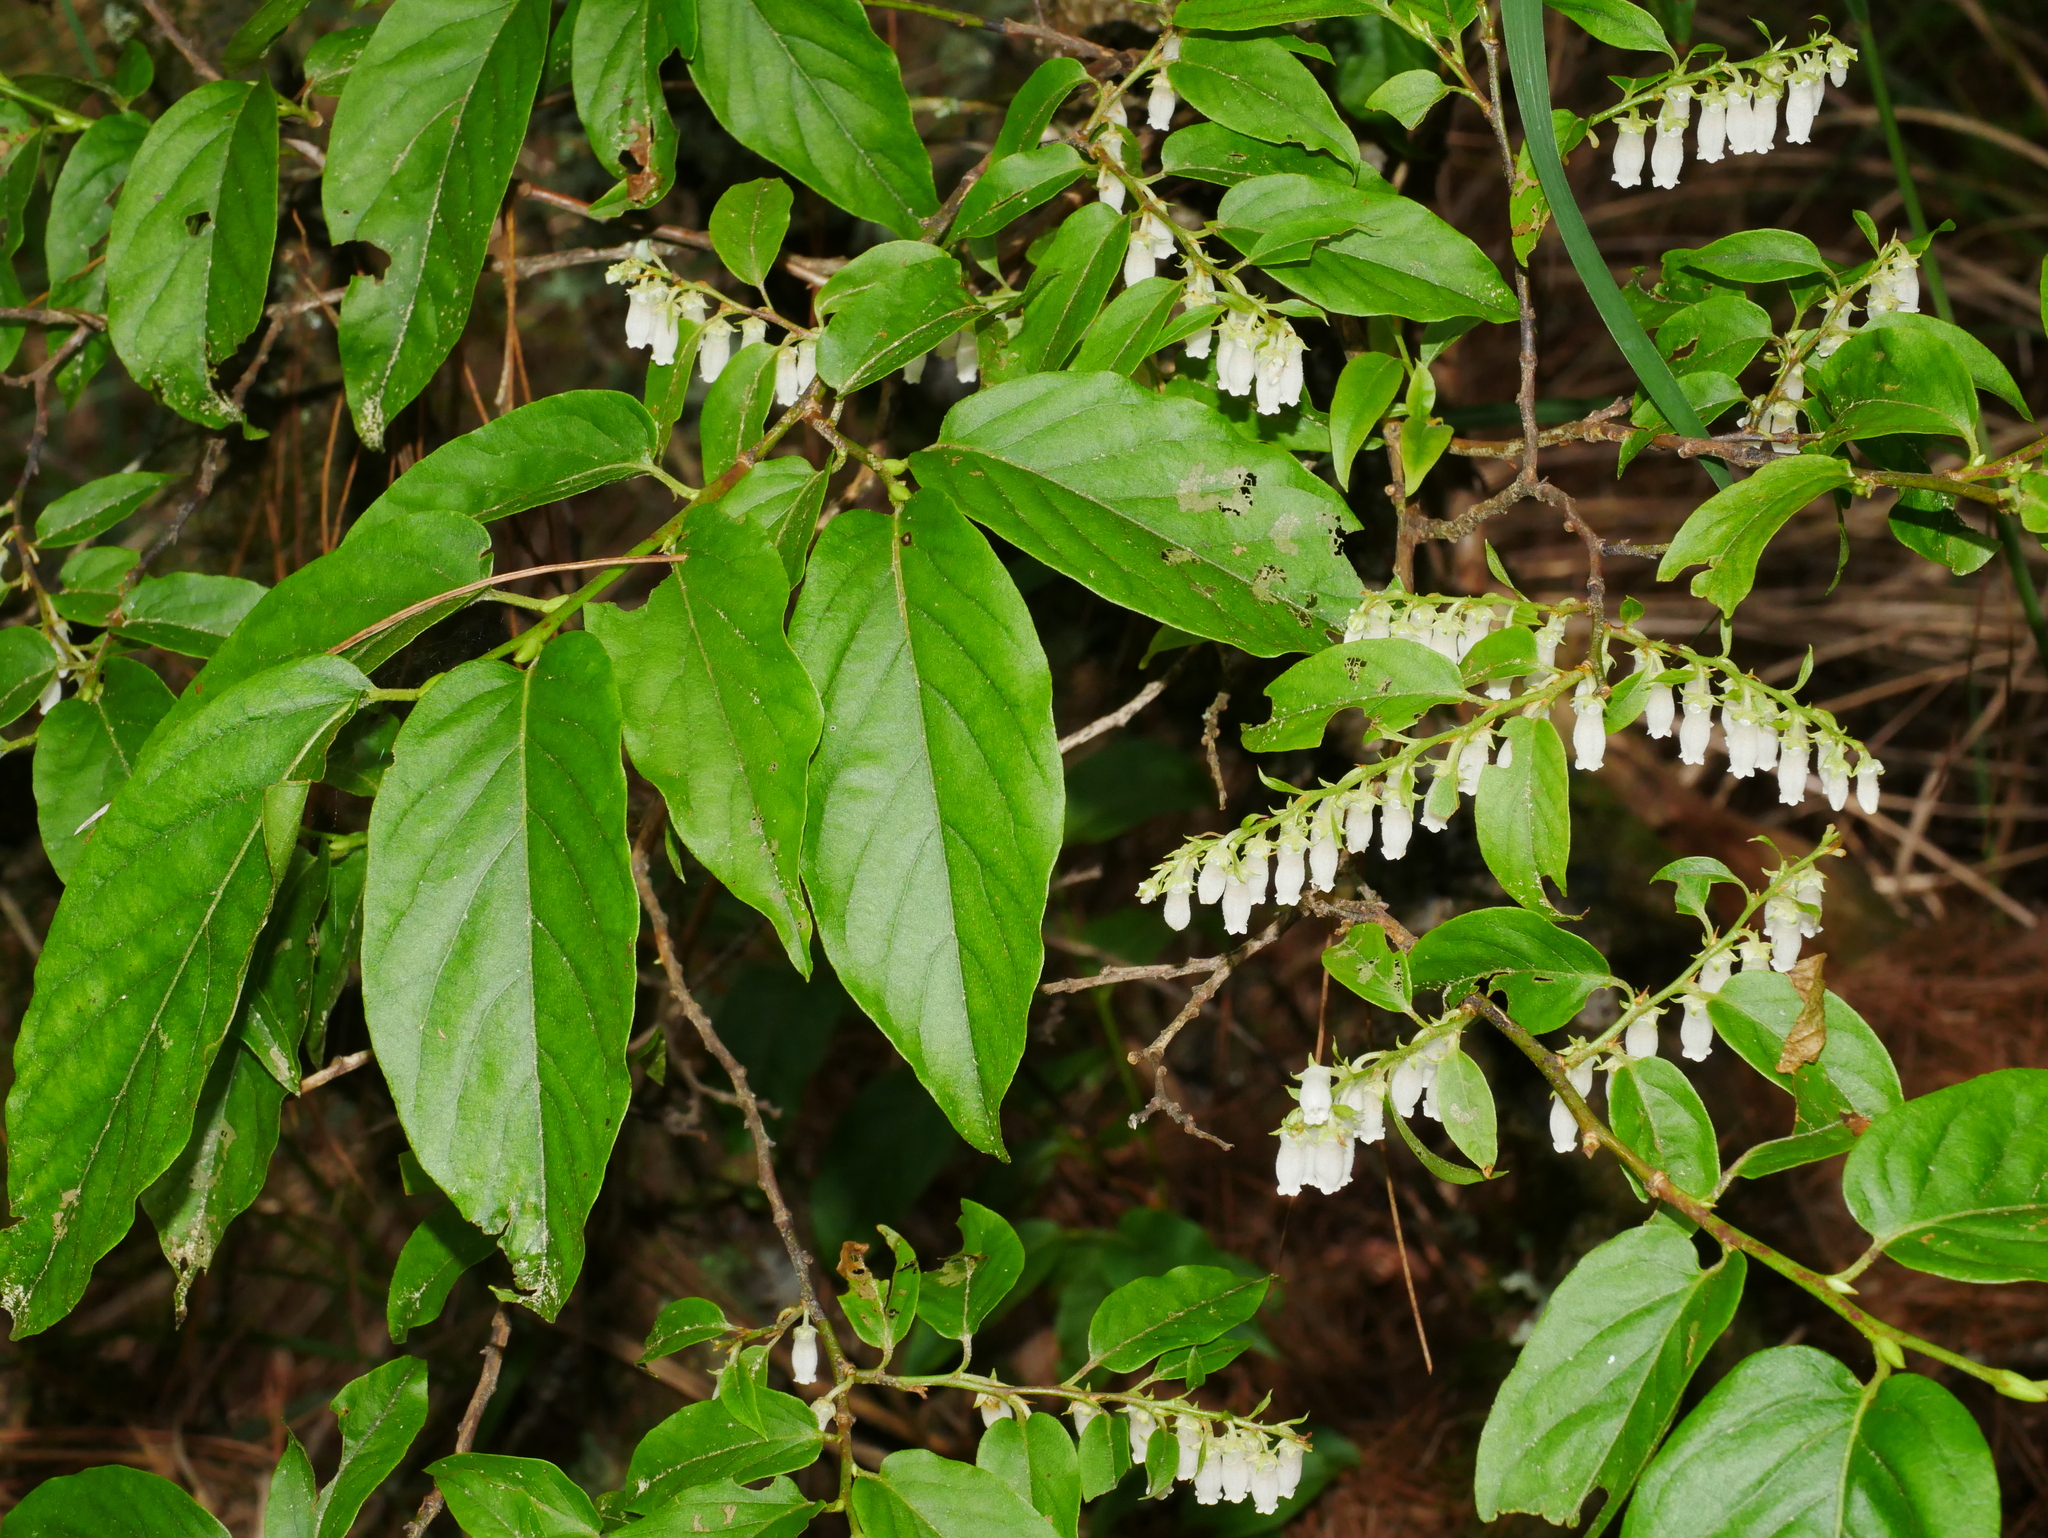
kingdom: Plantae
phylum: Tracheophyta
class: Magnoliopsida
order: Ericales
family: Ericaceae
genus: Lyonia
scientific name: Lyonia ovalifolia
